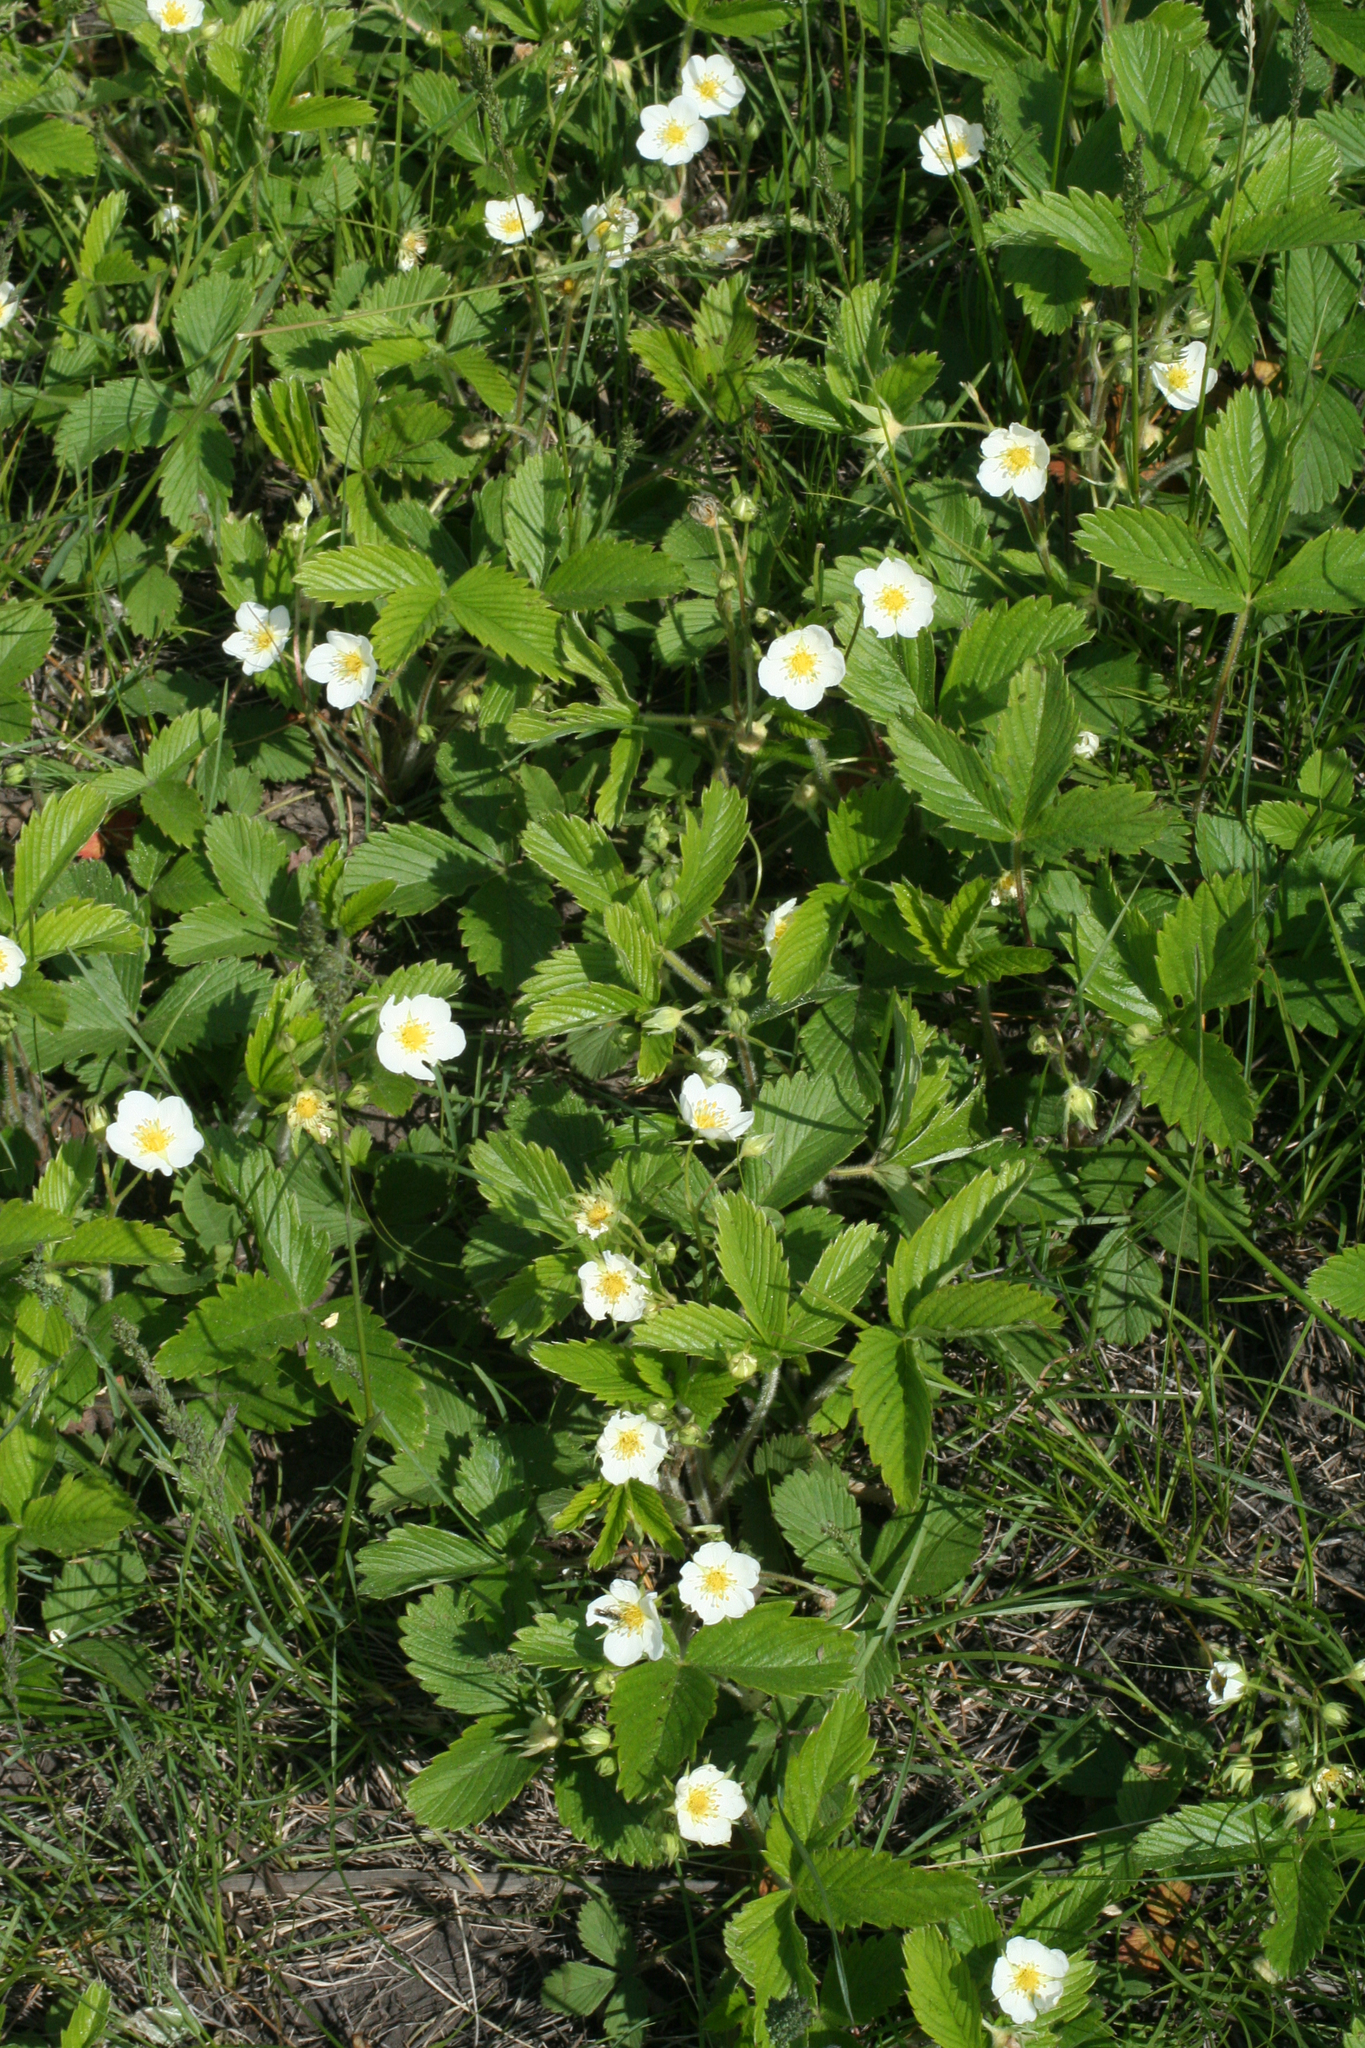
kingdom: Plantae
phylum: Tracheophyta
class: Magnoliopsida
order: Rosales
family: Rosaceae
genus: Fragaria
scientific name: Fragaria viridis
